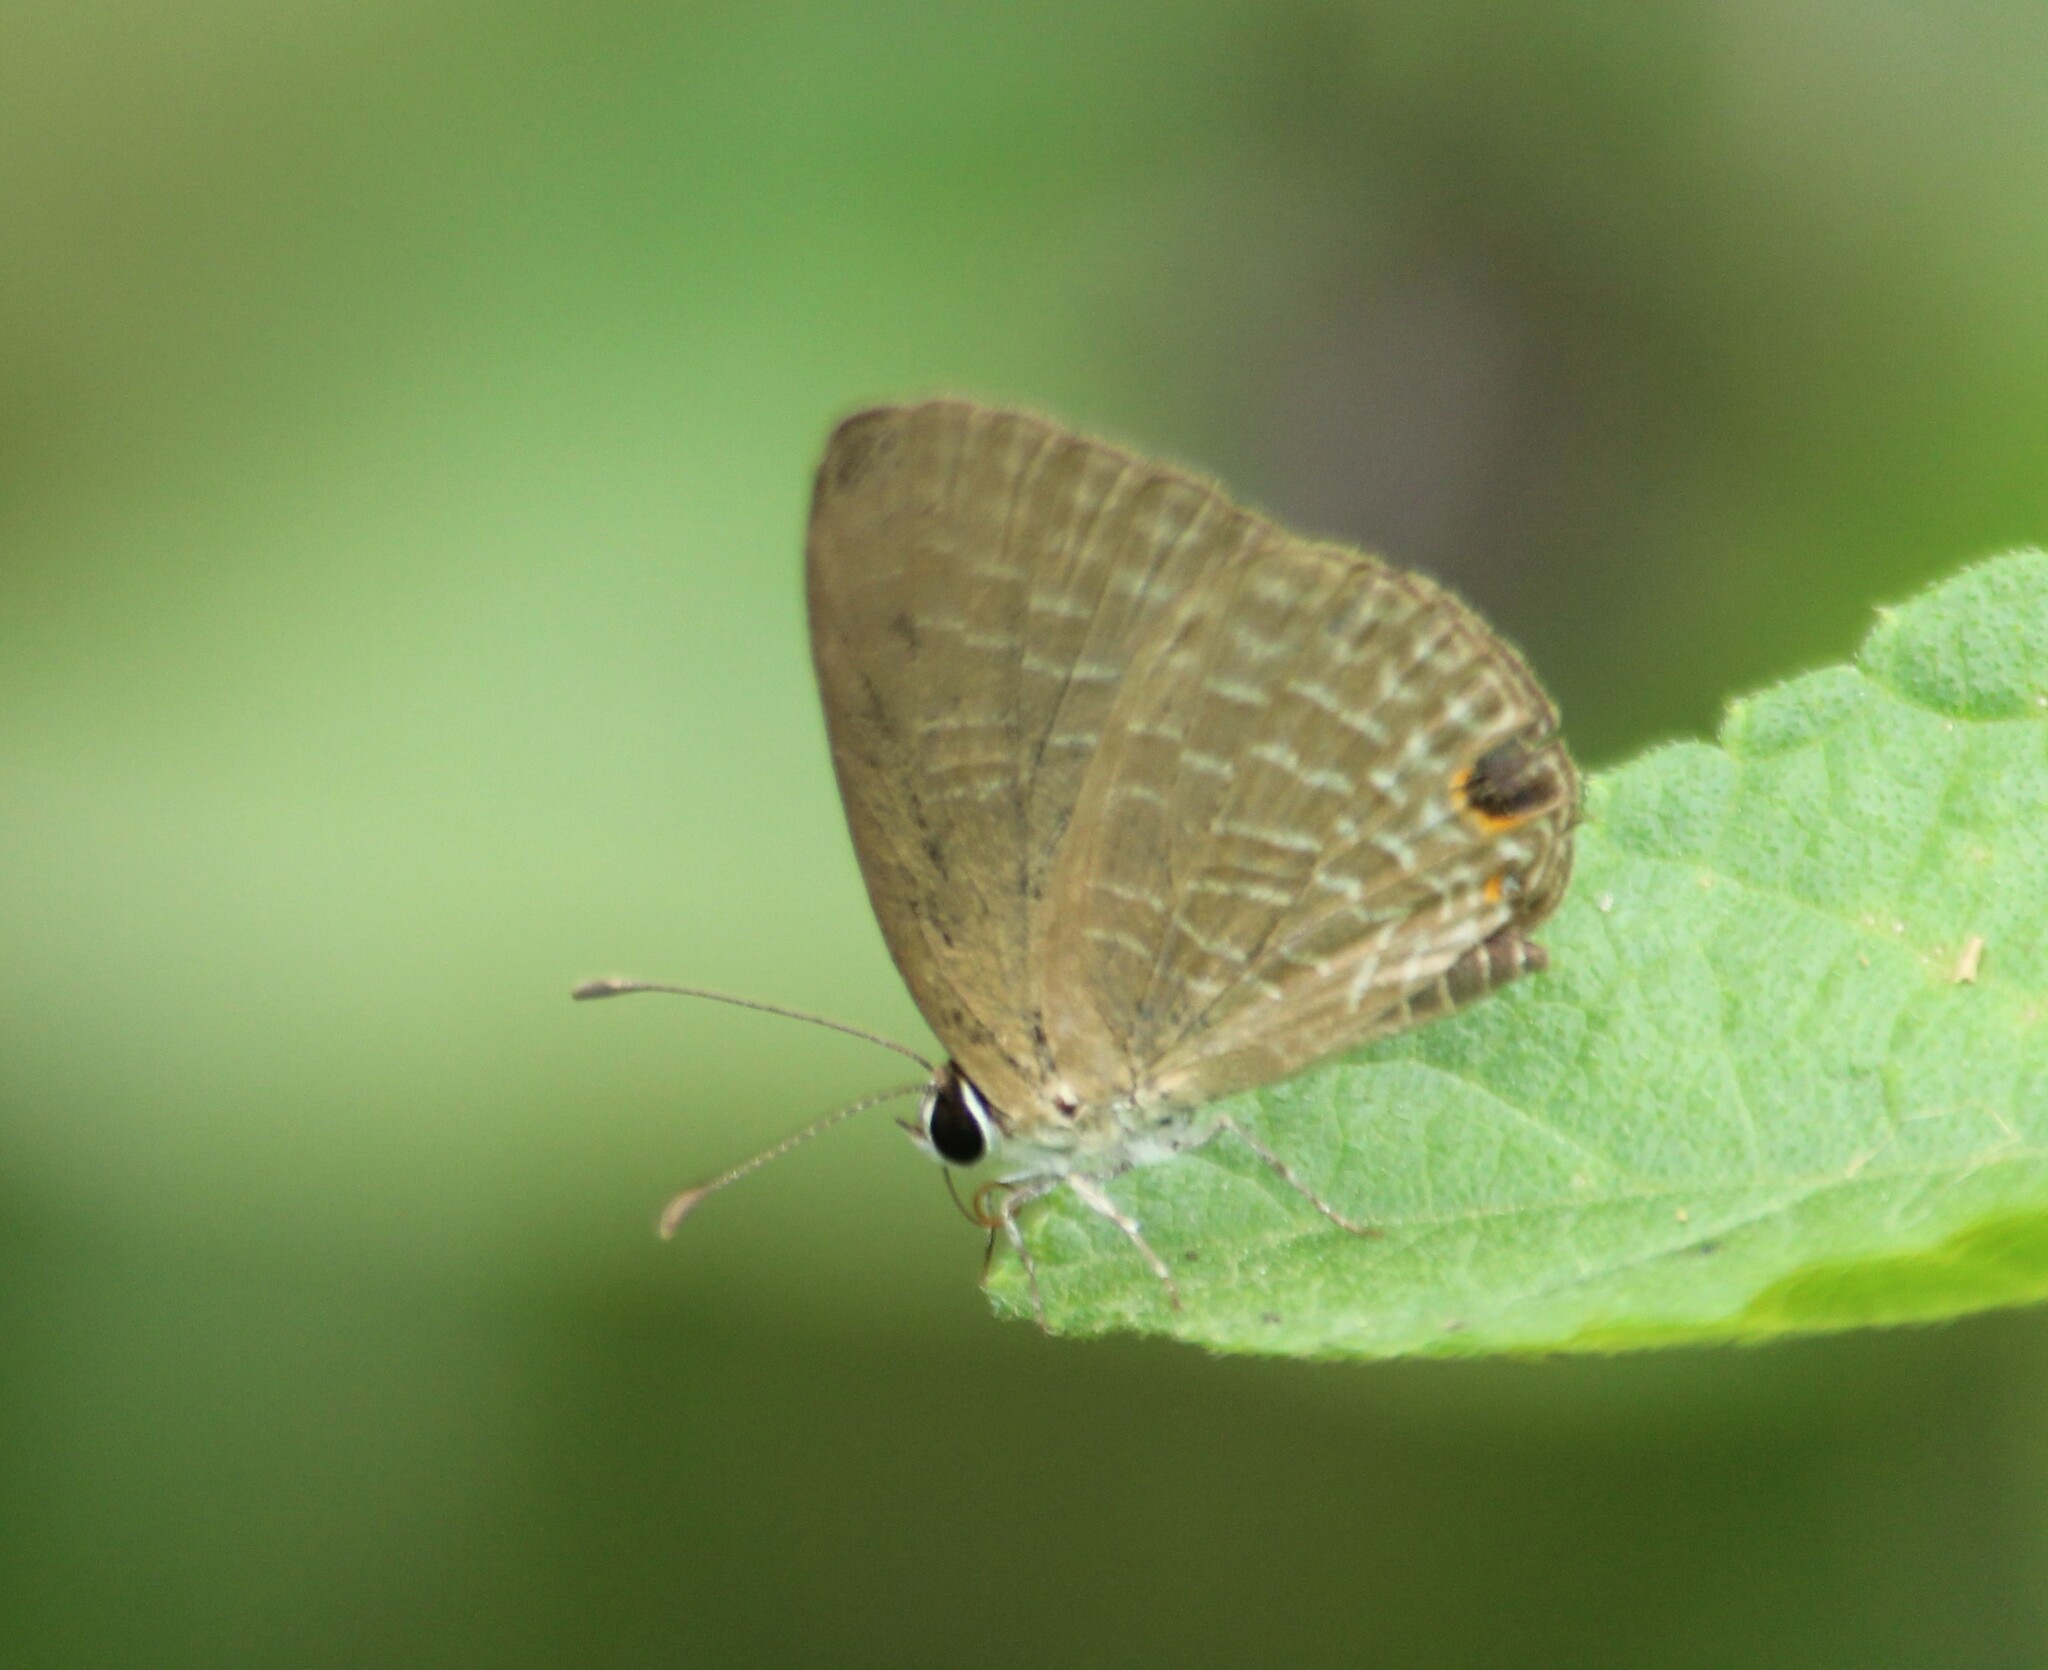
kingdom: Animalia
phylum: Arthropoda
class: Insecta
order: Lepidoptera
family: Lycaenidae
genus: Jamides
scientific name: Jamides bochus
